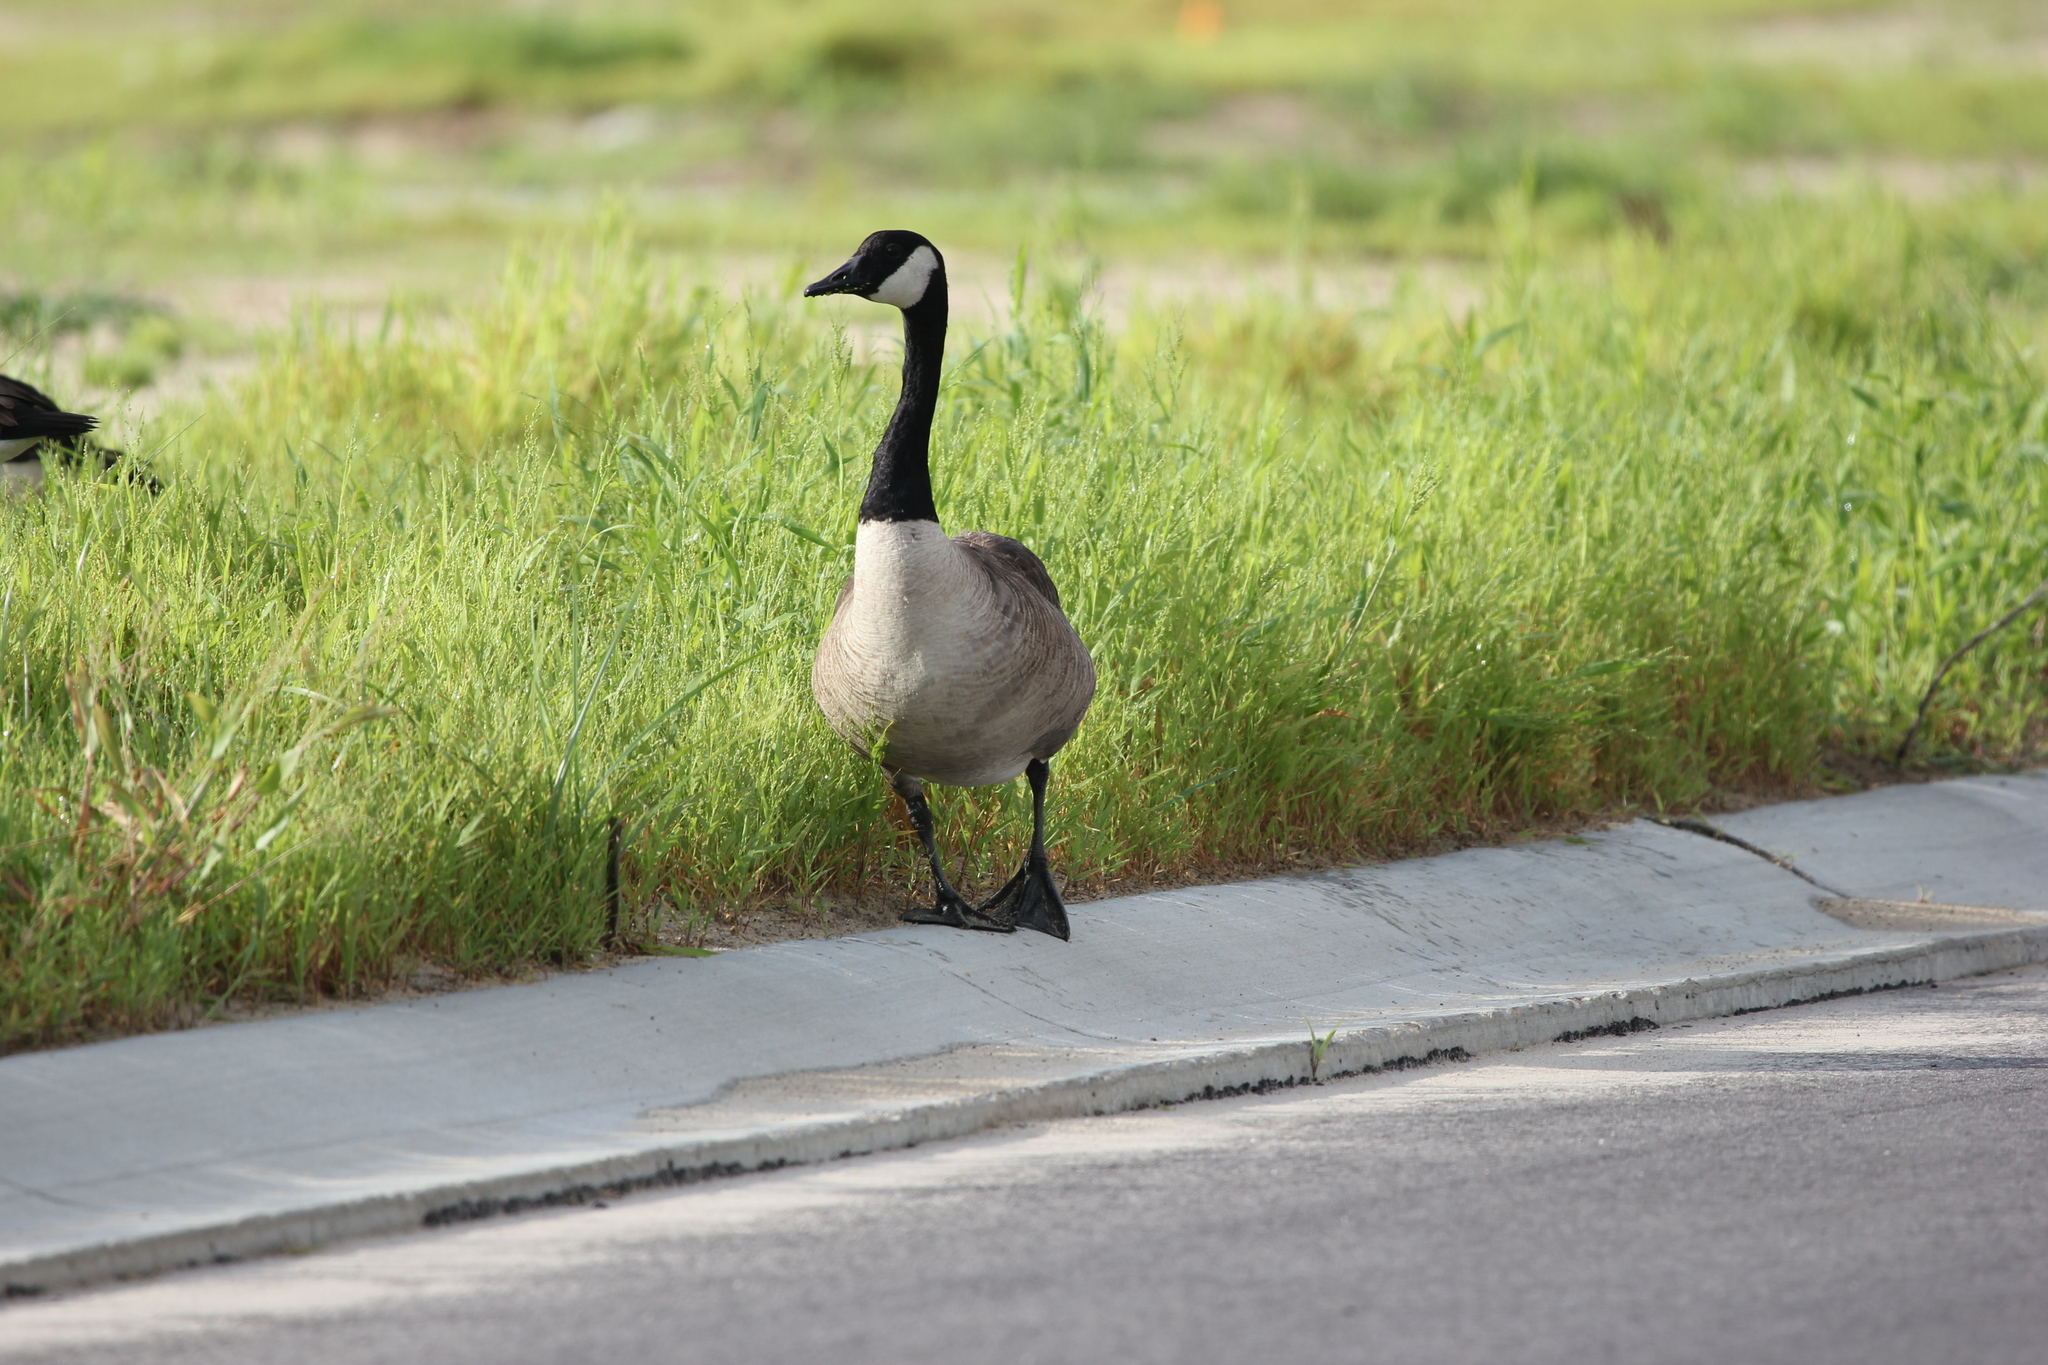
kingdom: Animalia
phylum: Chordata
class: Aves
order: Anseriformes
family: Anatidae
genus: Branta
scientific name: Branta canadensis
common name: Canada goose
